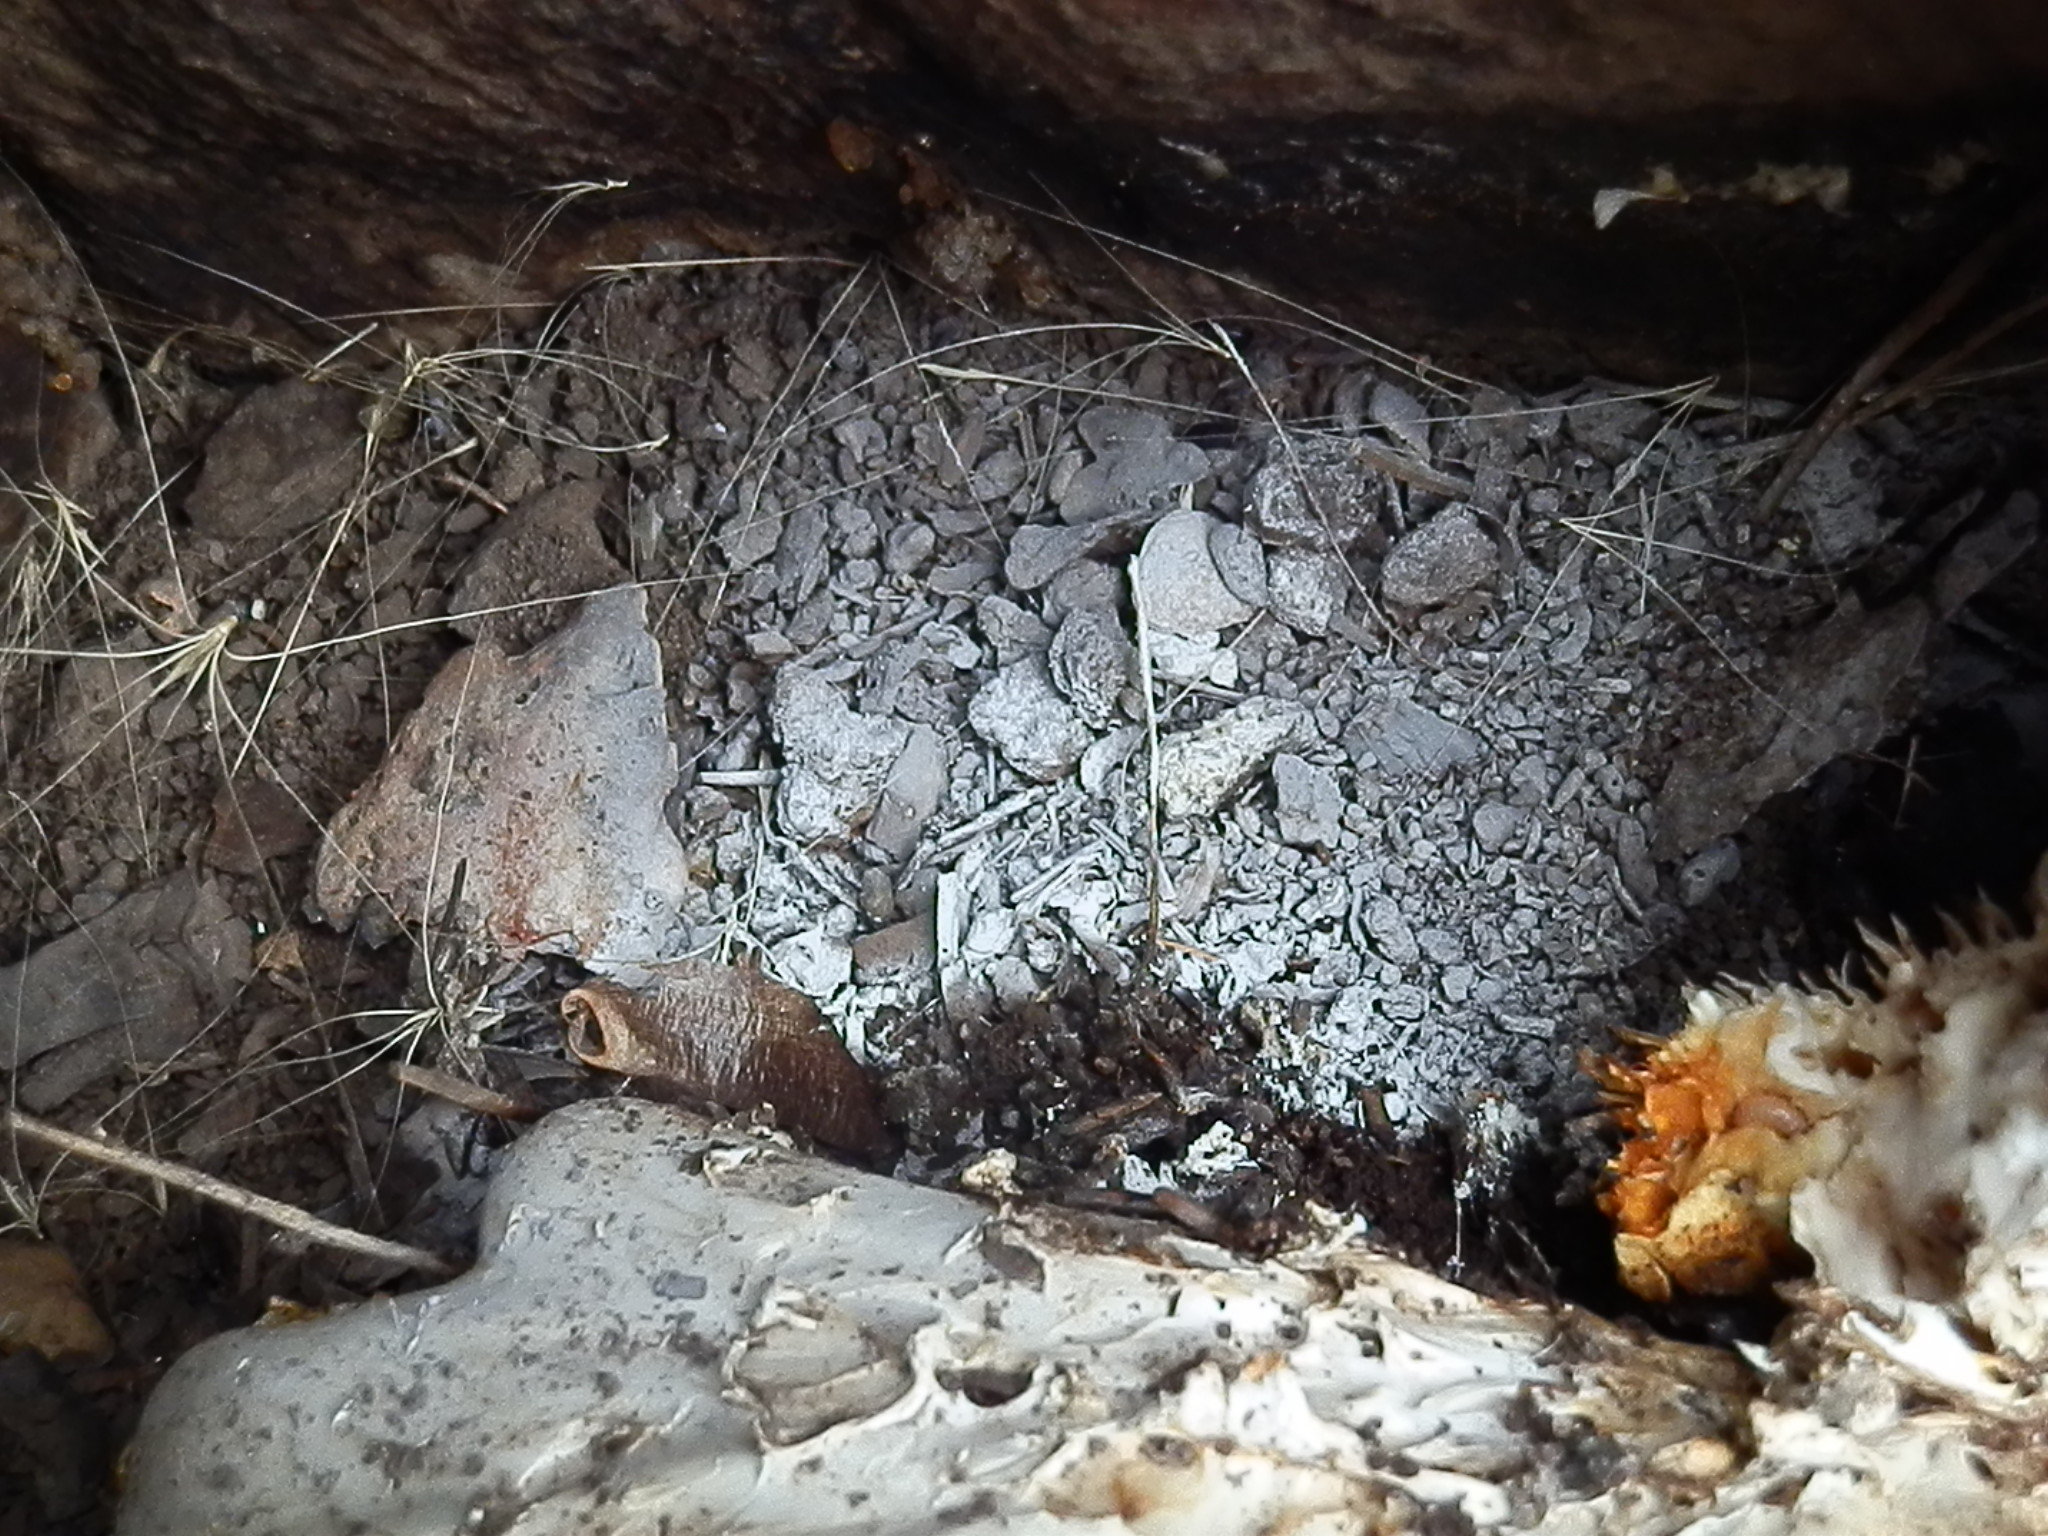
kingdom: Fungi
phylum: Basidiomycota
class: Agaricomycetes
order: Gloeophyllales
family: Gloeophyllaceae
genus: Neolentinus
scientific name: Neolentinus ponderosus
